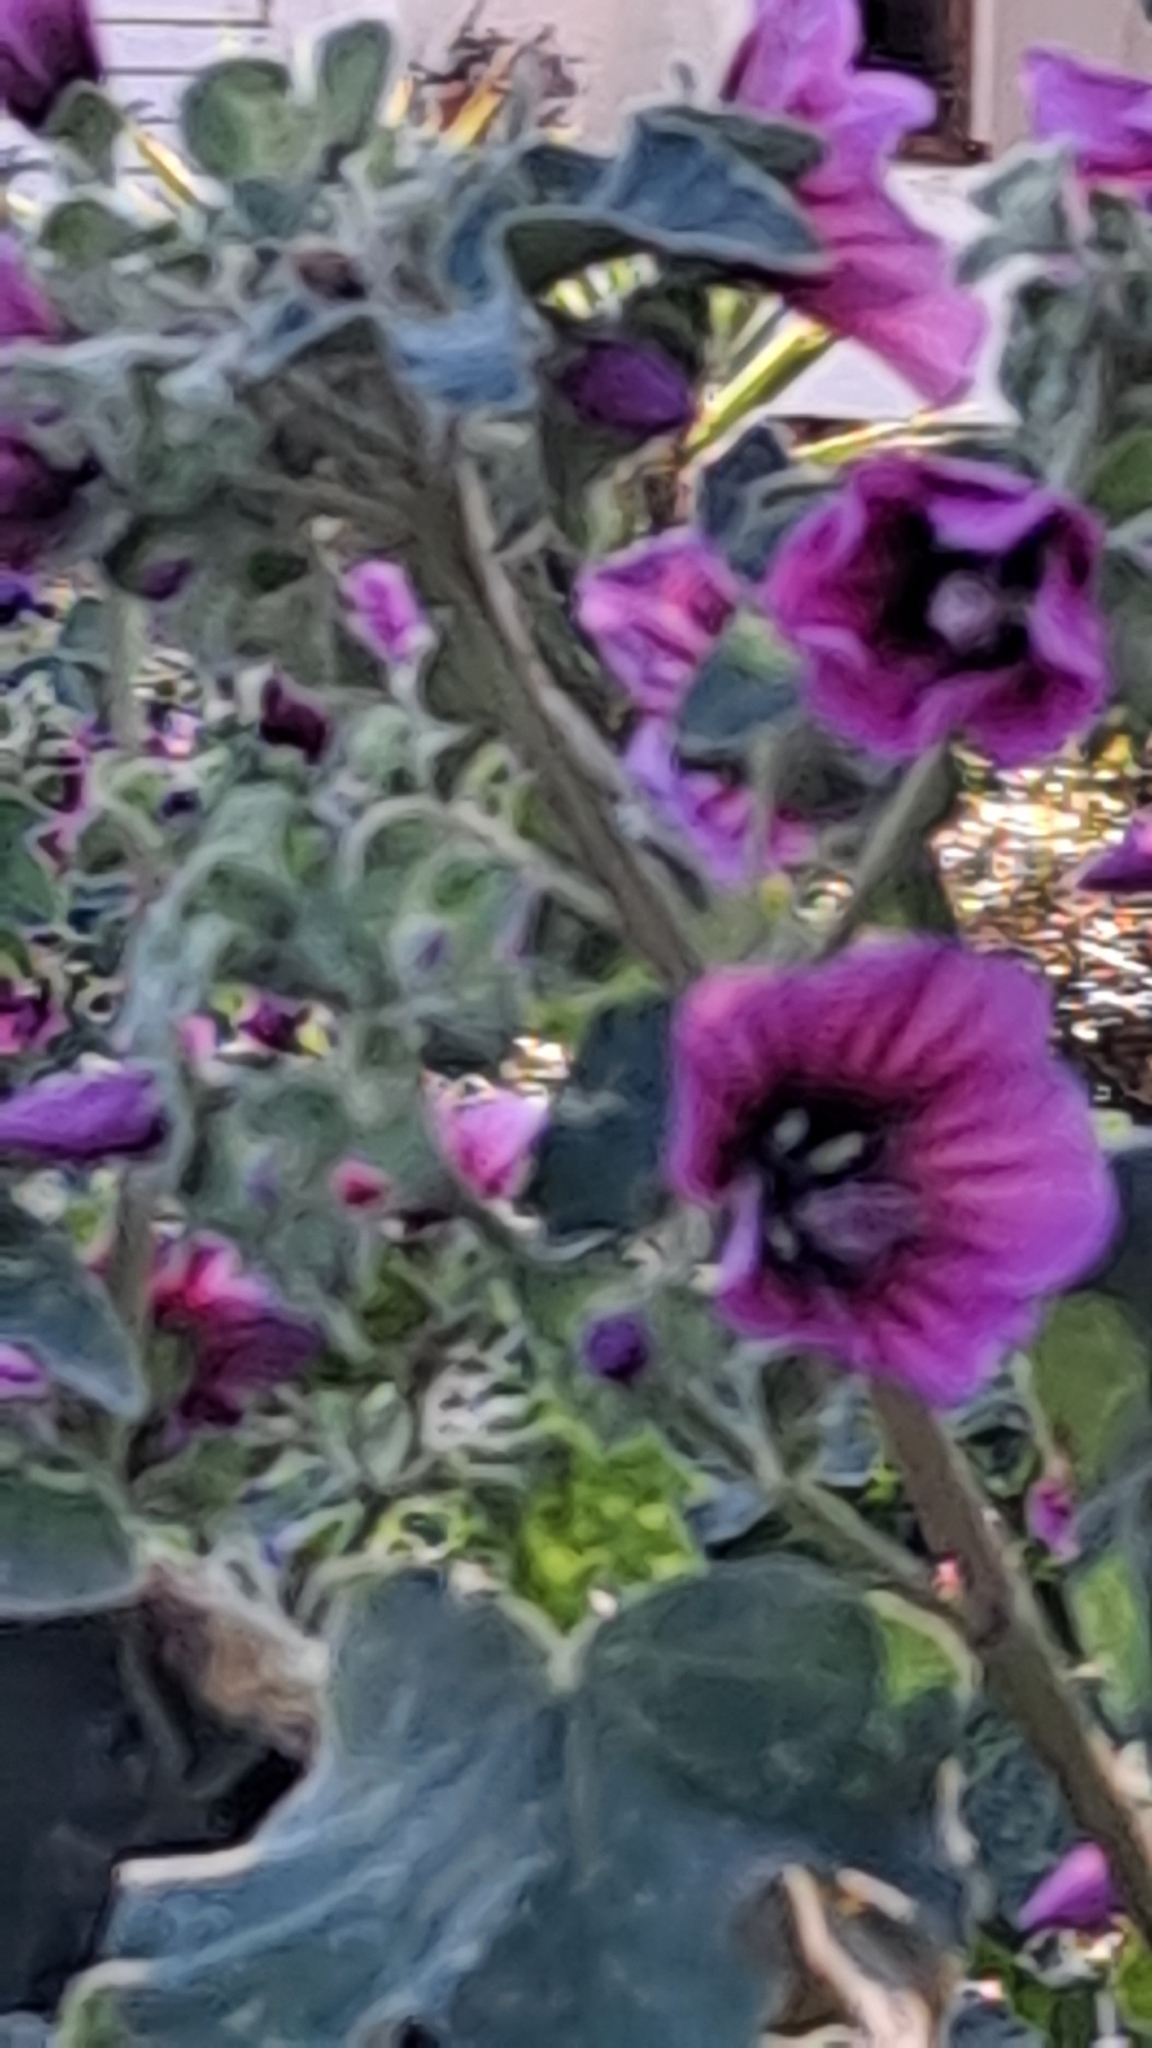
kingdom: Plantae
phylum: Tracheophyta
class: Magnoliopsida
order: Malvales
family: Malvaceae
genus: Malva
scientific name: Malva arborea
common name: Tree mallow
